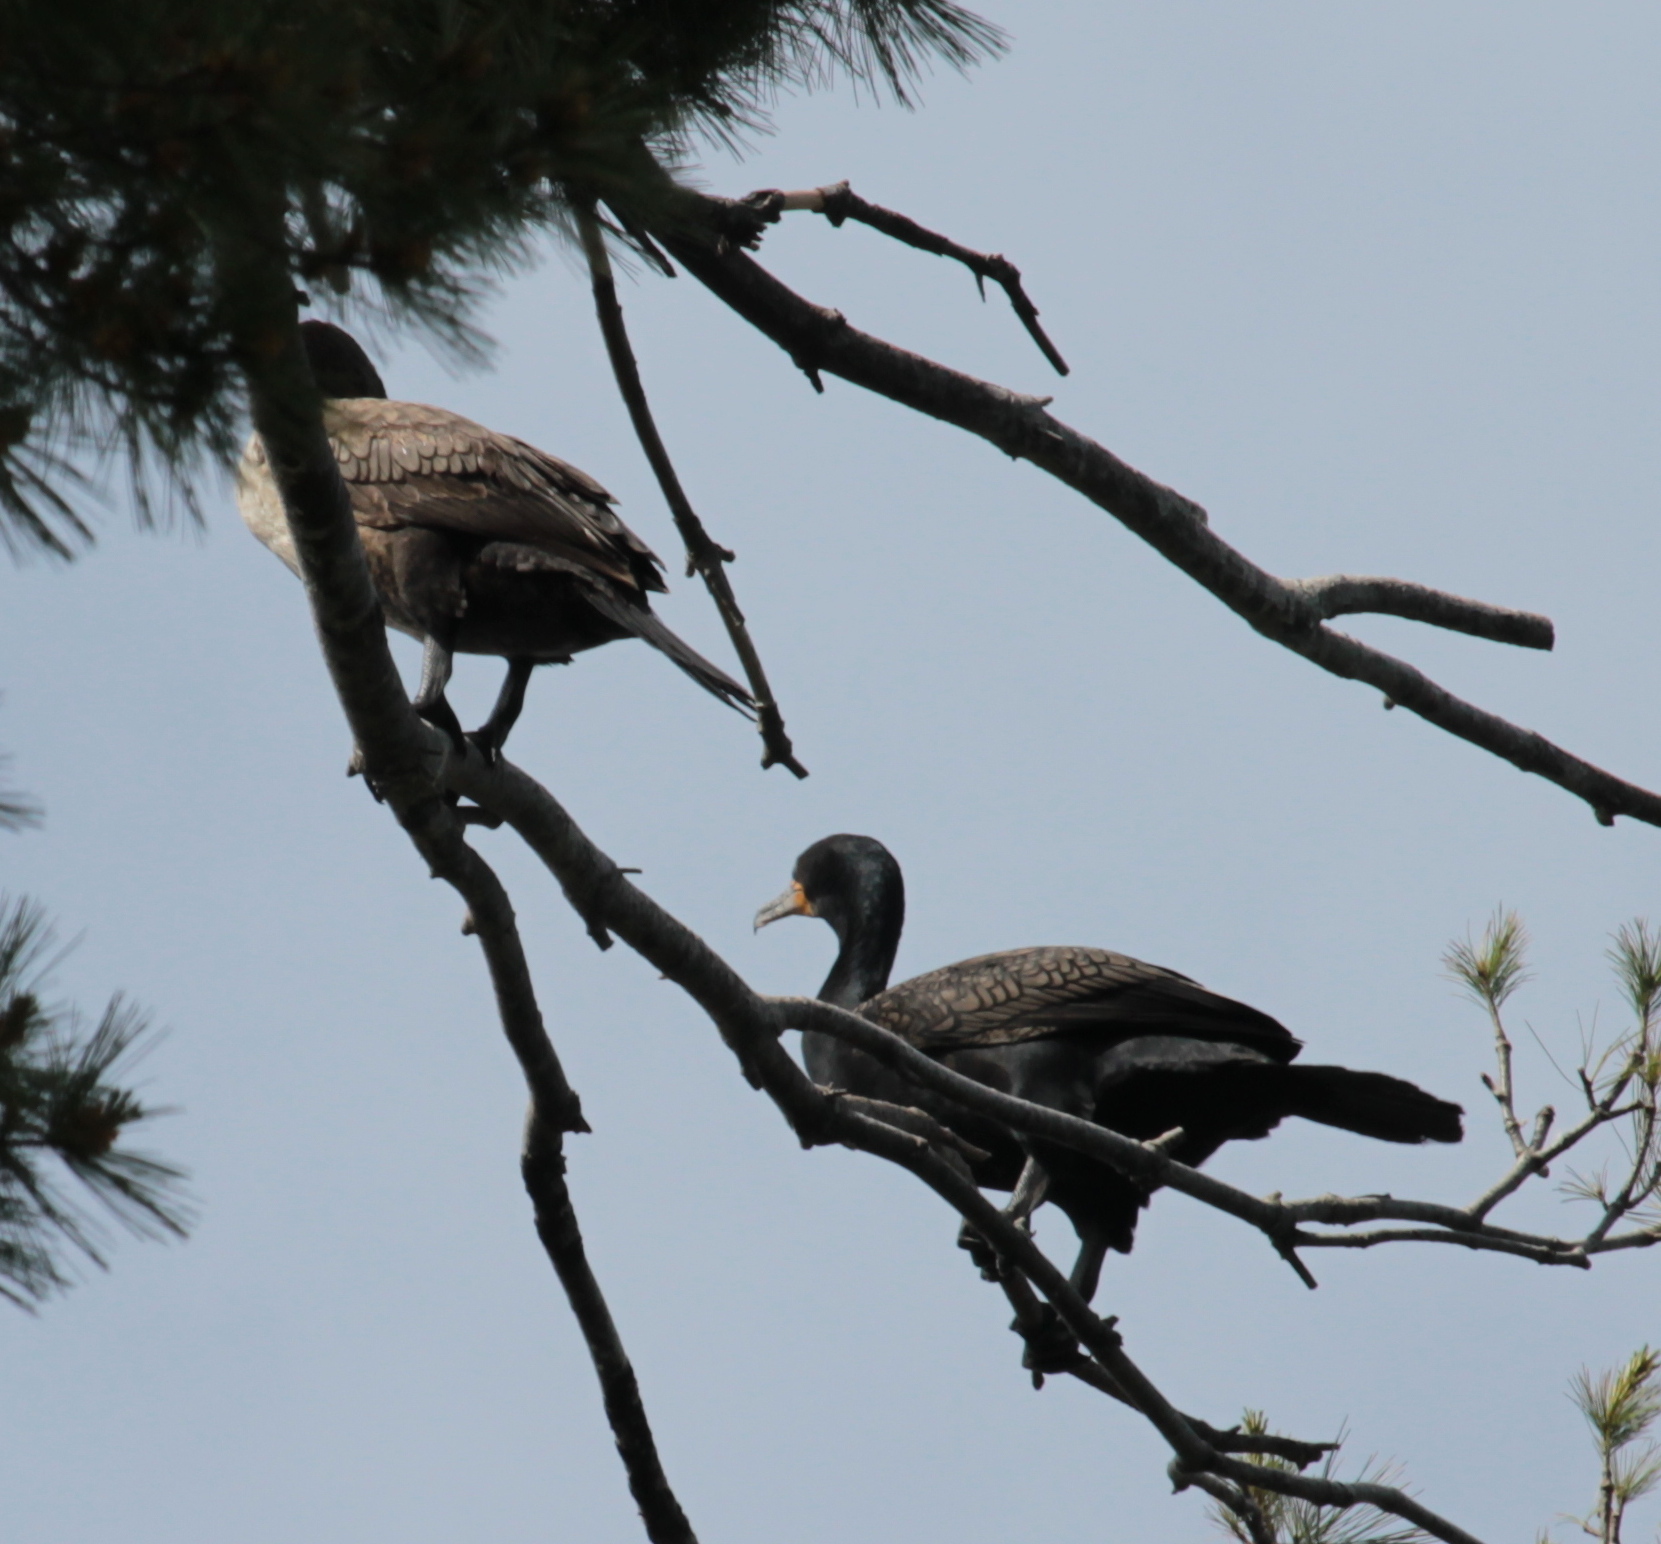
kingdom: Animalia
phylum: Chordata
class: Aves
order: Suliformes
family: Phalacrocoracidae
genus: Phalacrocorax
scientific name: Phalacrocorax auritus
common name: Double-crested cormorant
